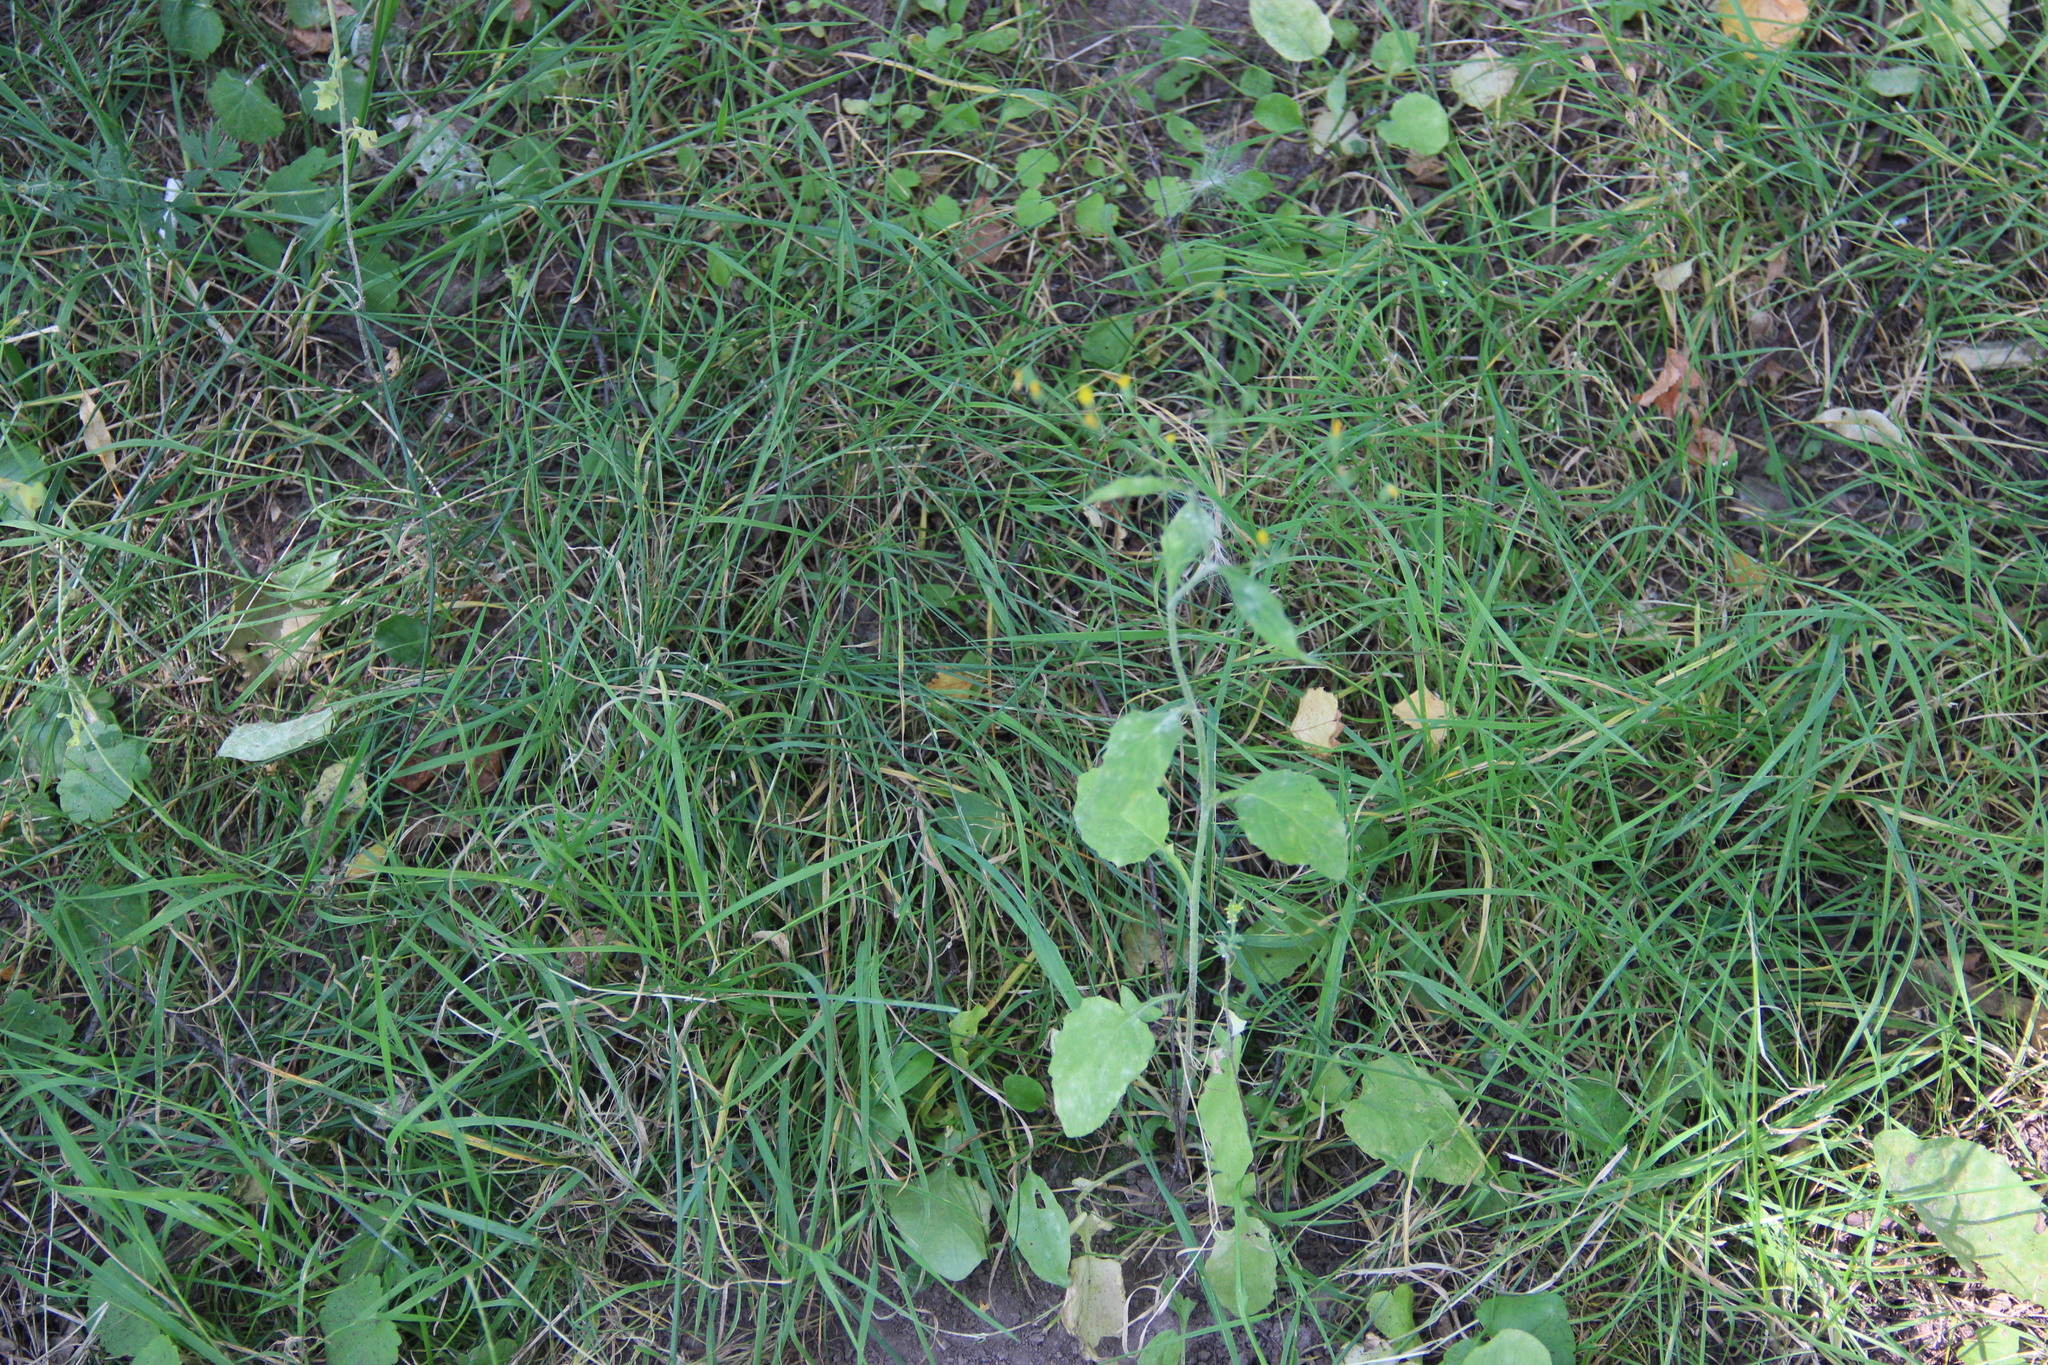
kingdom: Plantae
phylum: Tracheophyta
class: Magnoliopsida
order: Asterales
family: Asteraceae
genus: Lapsana
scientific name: Lapsana communis
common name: Nipplewort
